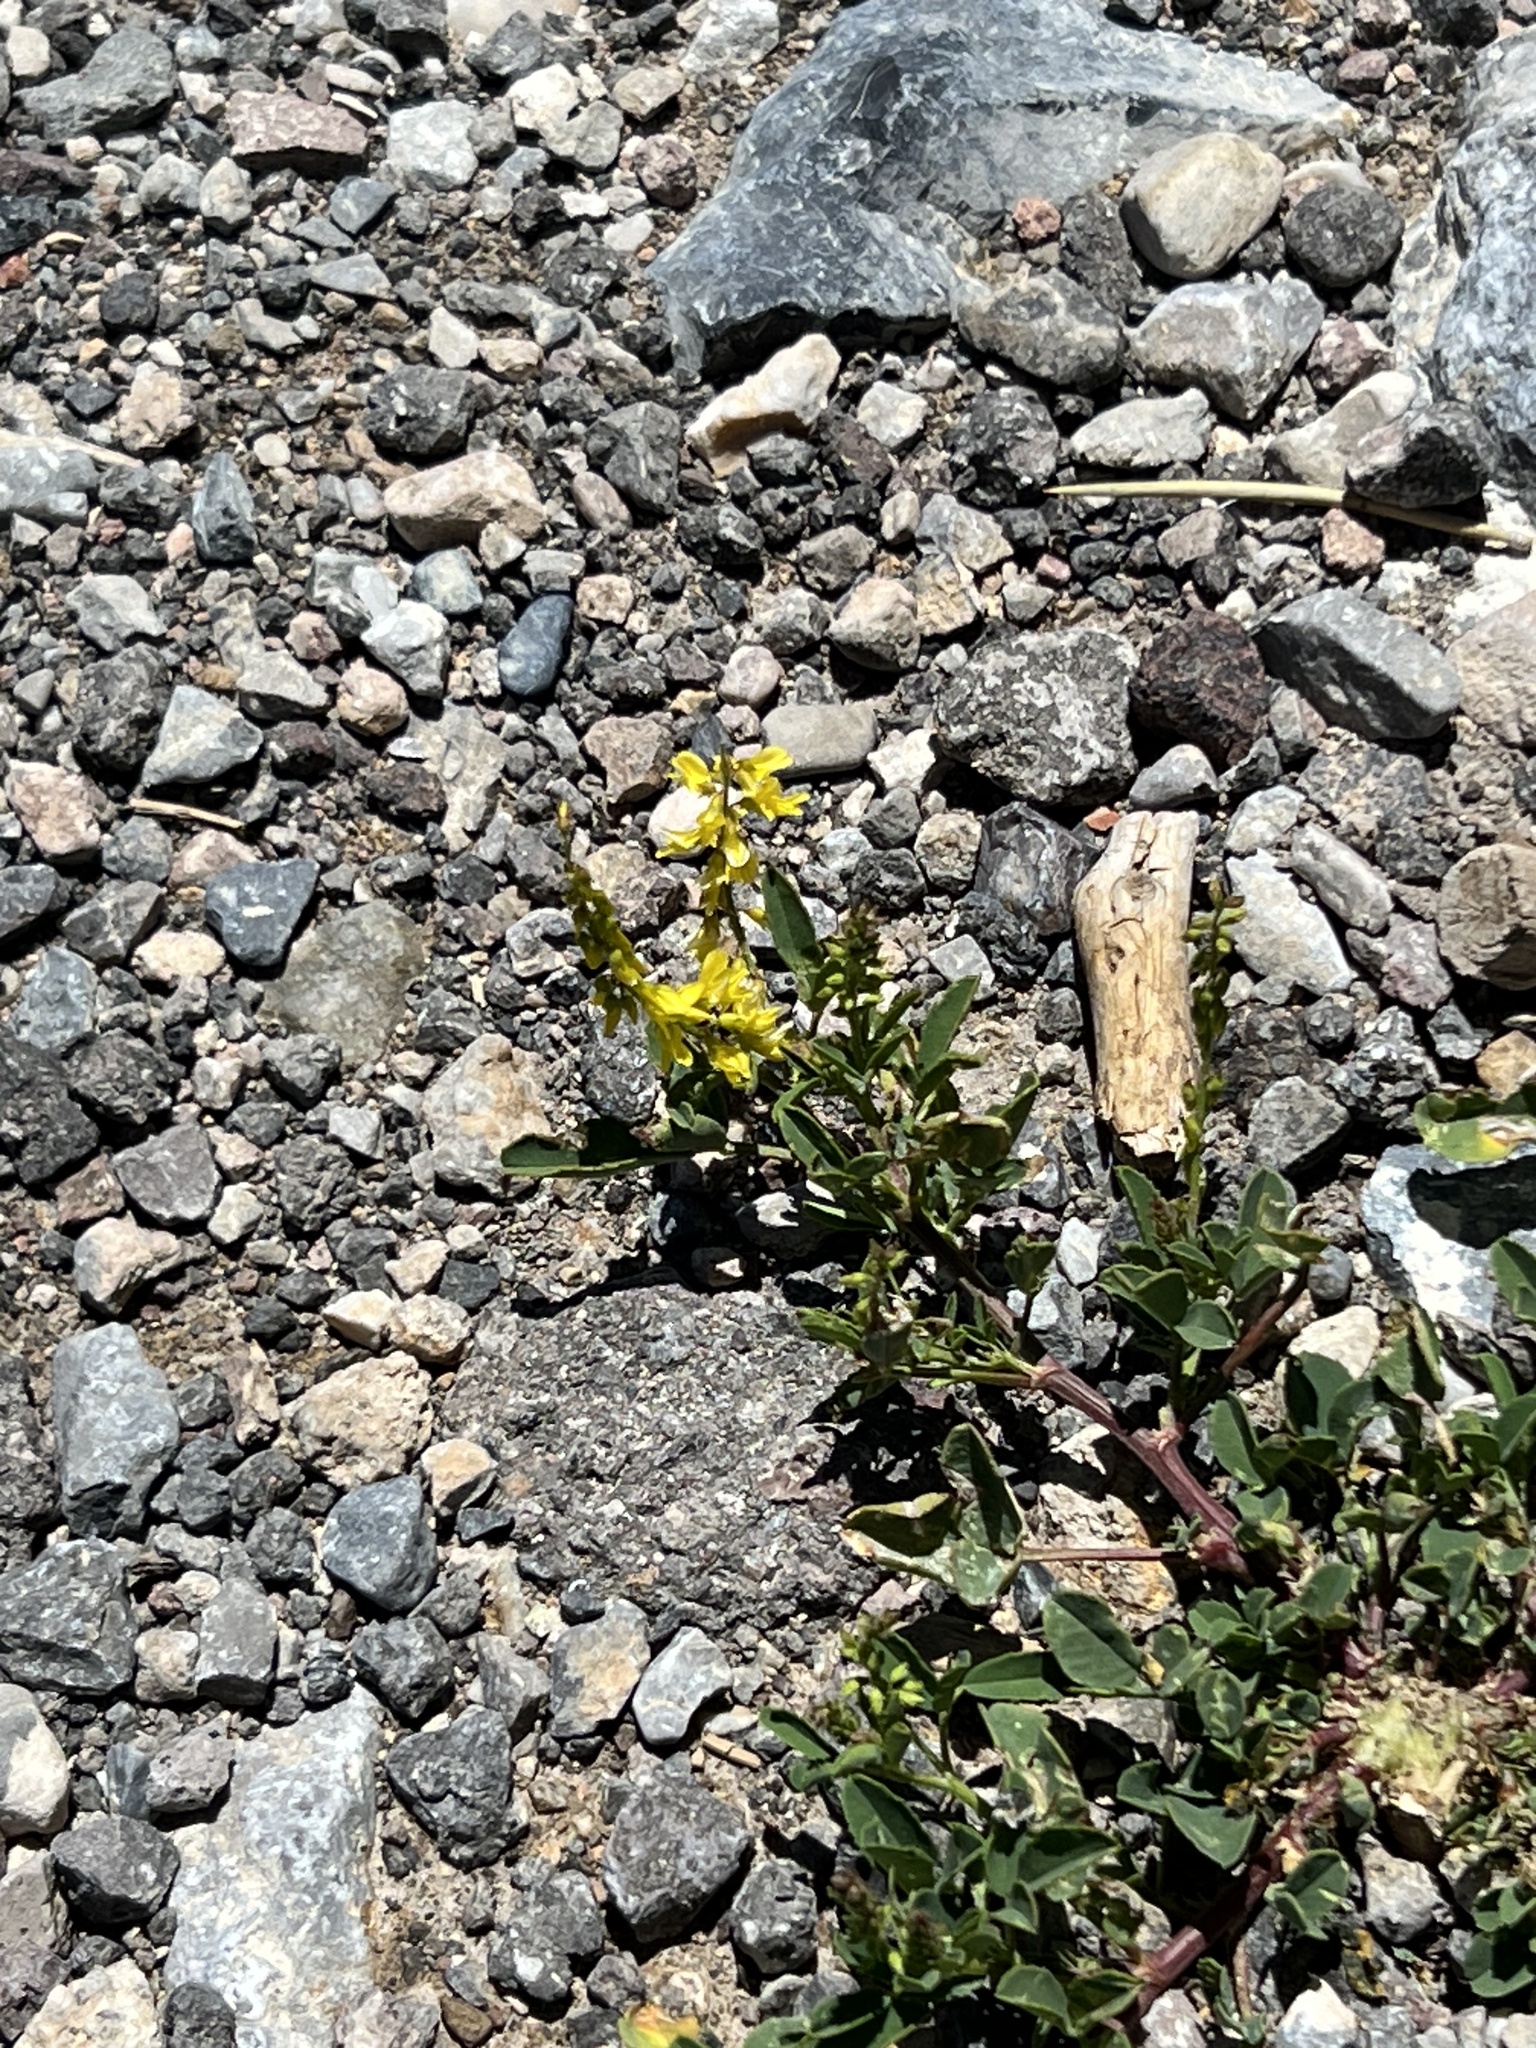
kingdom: Plantae
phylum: Tracheophyta
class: Magnoliopsida
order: Fabales
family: Fabaceae
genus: Melilotus
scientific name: Melilotus officinalis
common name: Sweetclover
